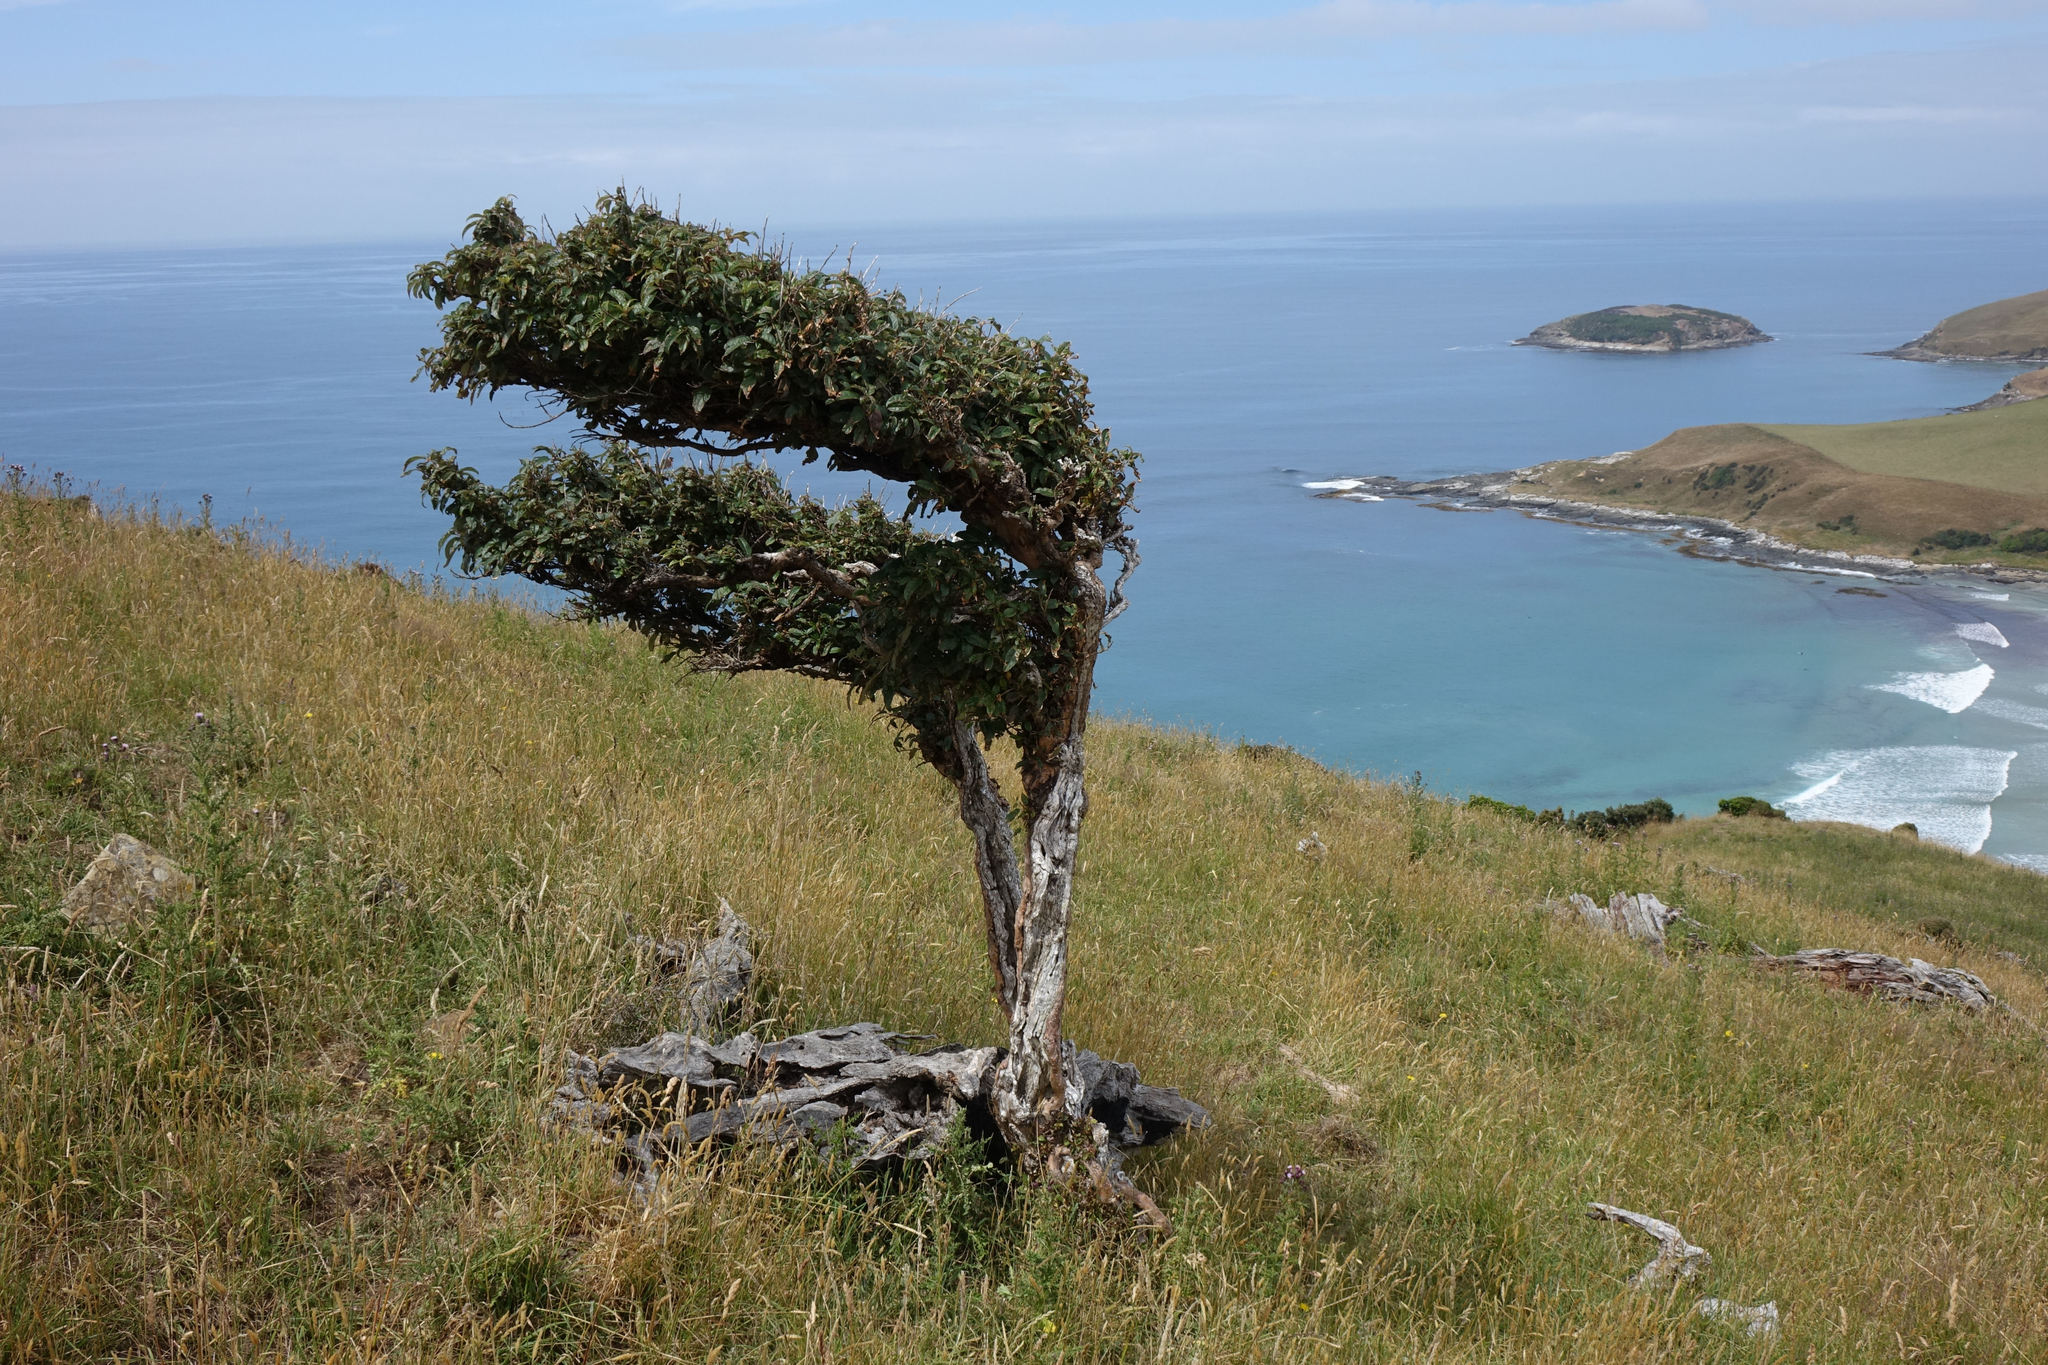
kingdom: Plantae
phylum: Tracheophyta
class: Magnoliopsida
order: Myrtales
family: Onagraceae
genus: Fuchsia
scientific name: Fuchsia excorticata
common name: Tree fuchsia
